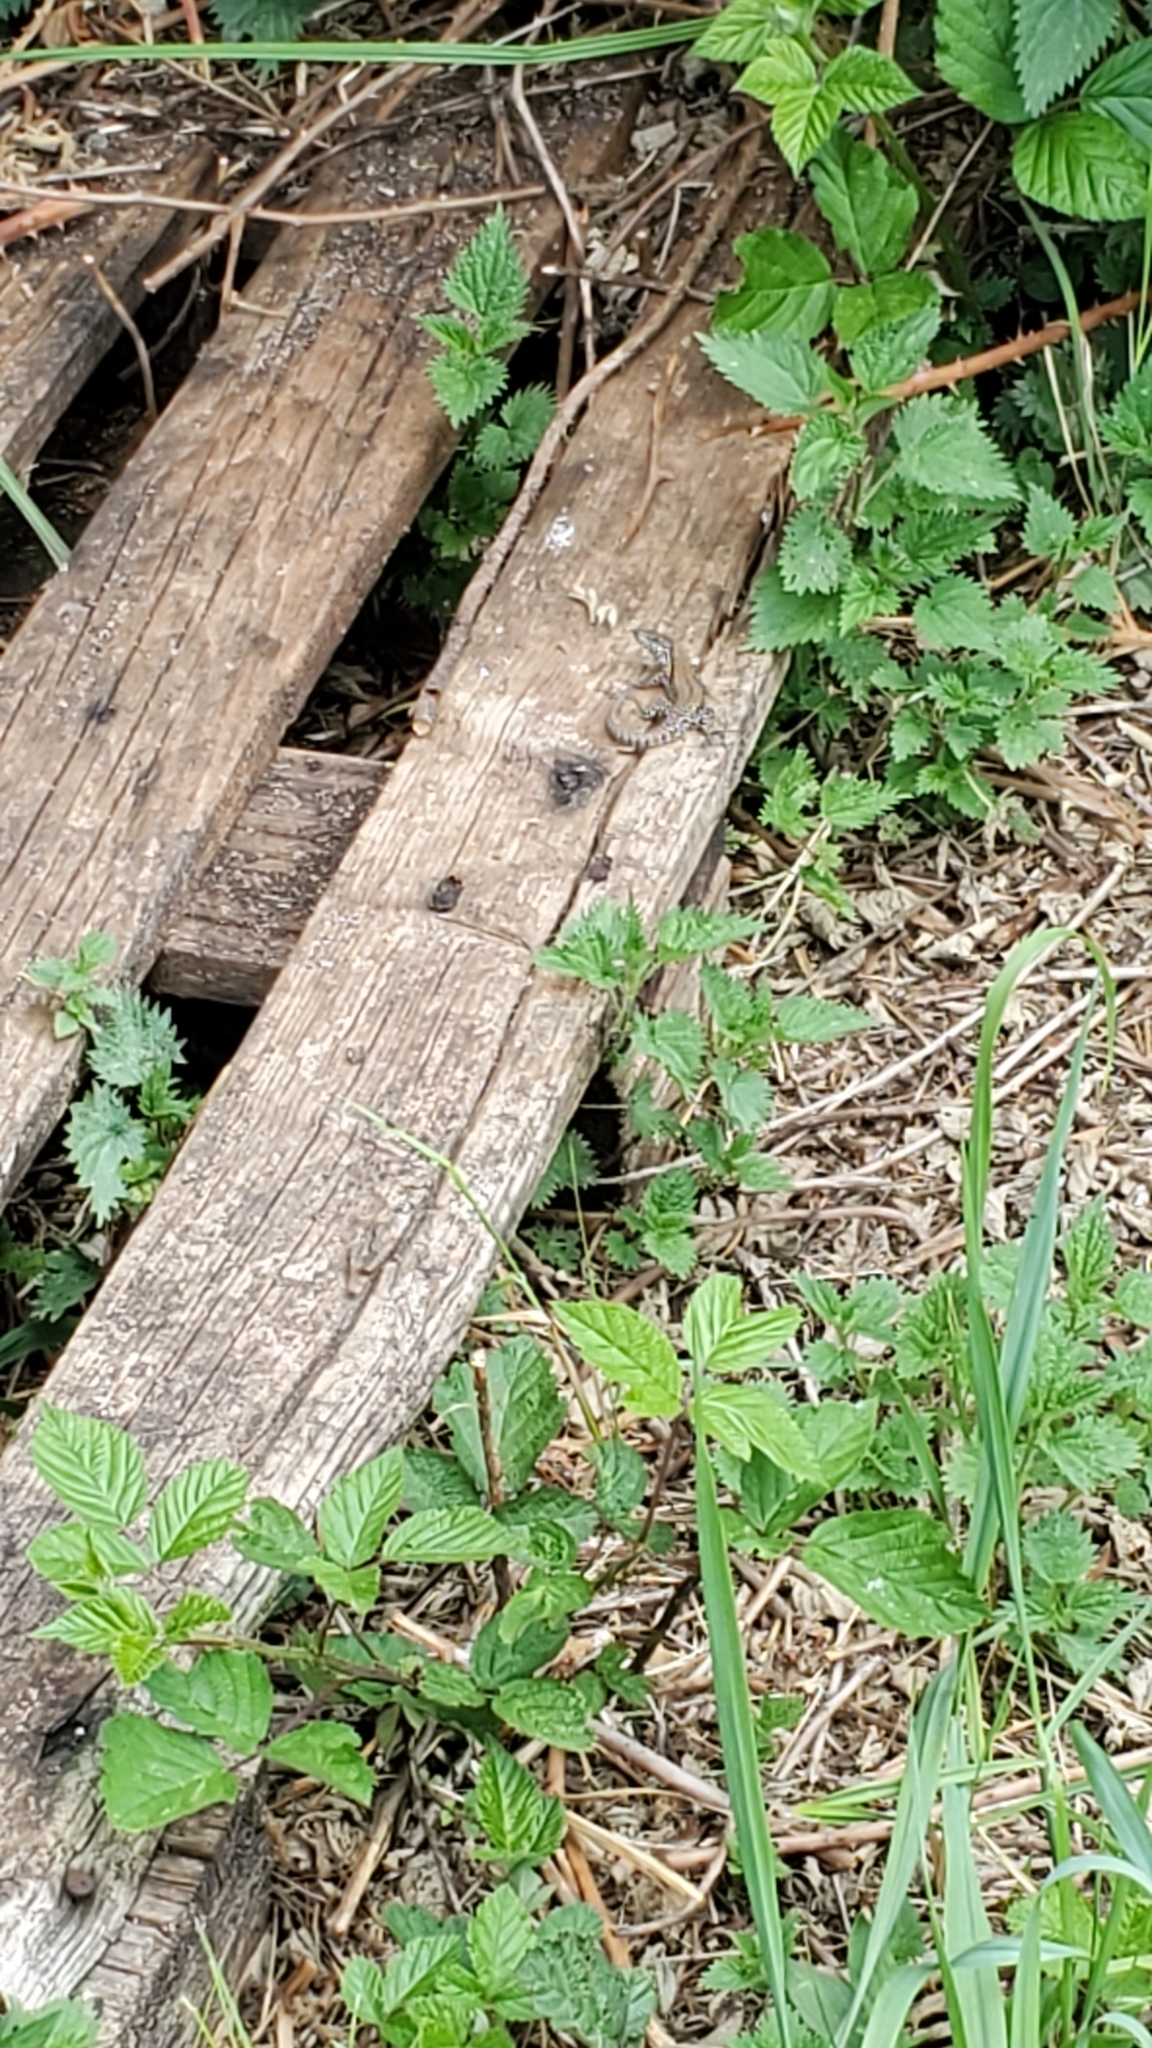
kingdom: Animalia
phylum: Chordata
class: Squamata
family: Lacertidae
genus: Podarcis
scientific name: Podarcis muralis
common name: Common wall lizard
